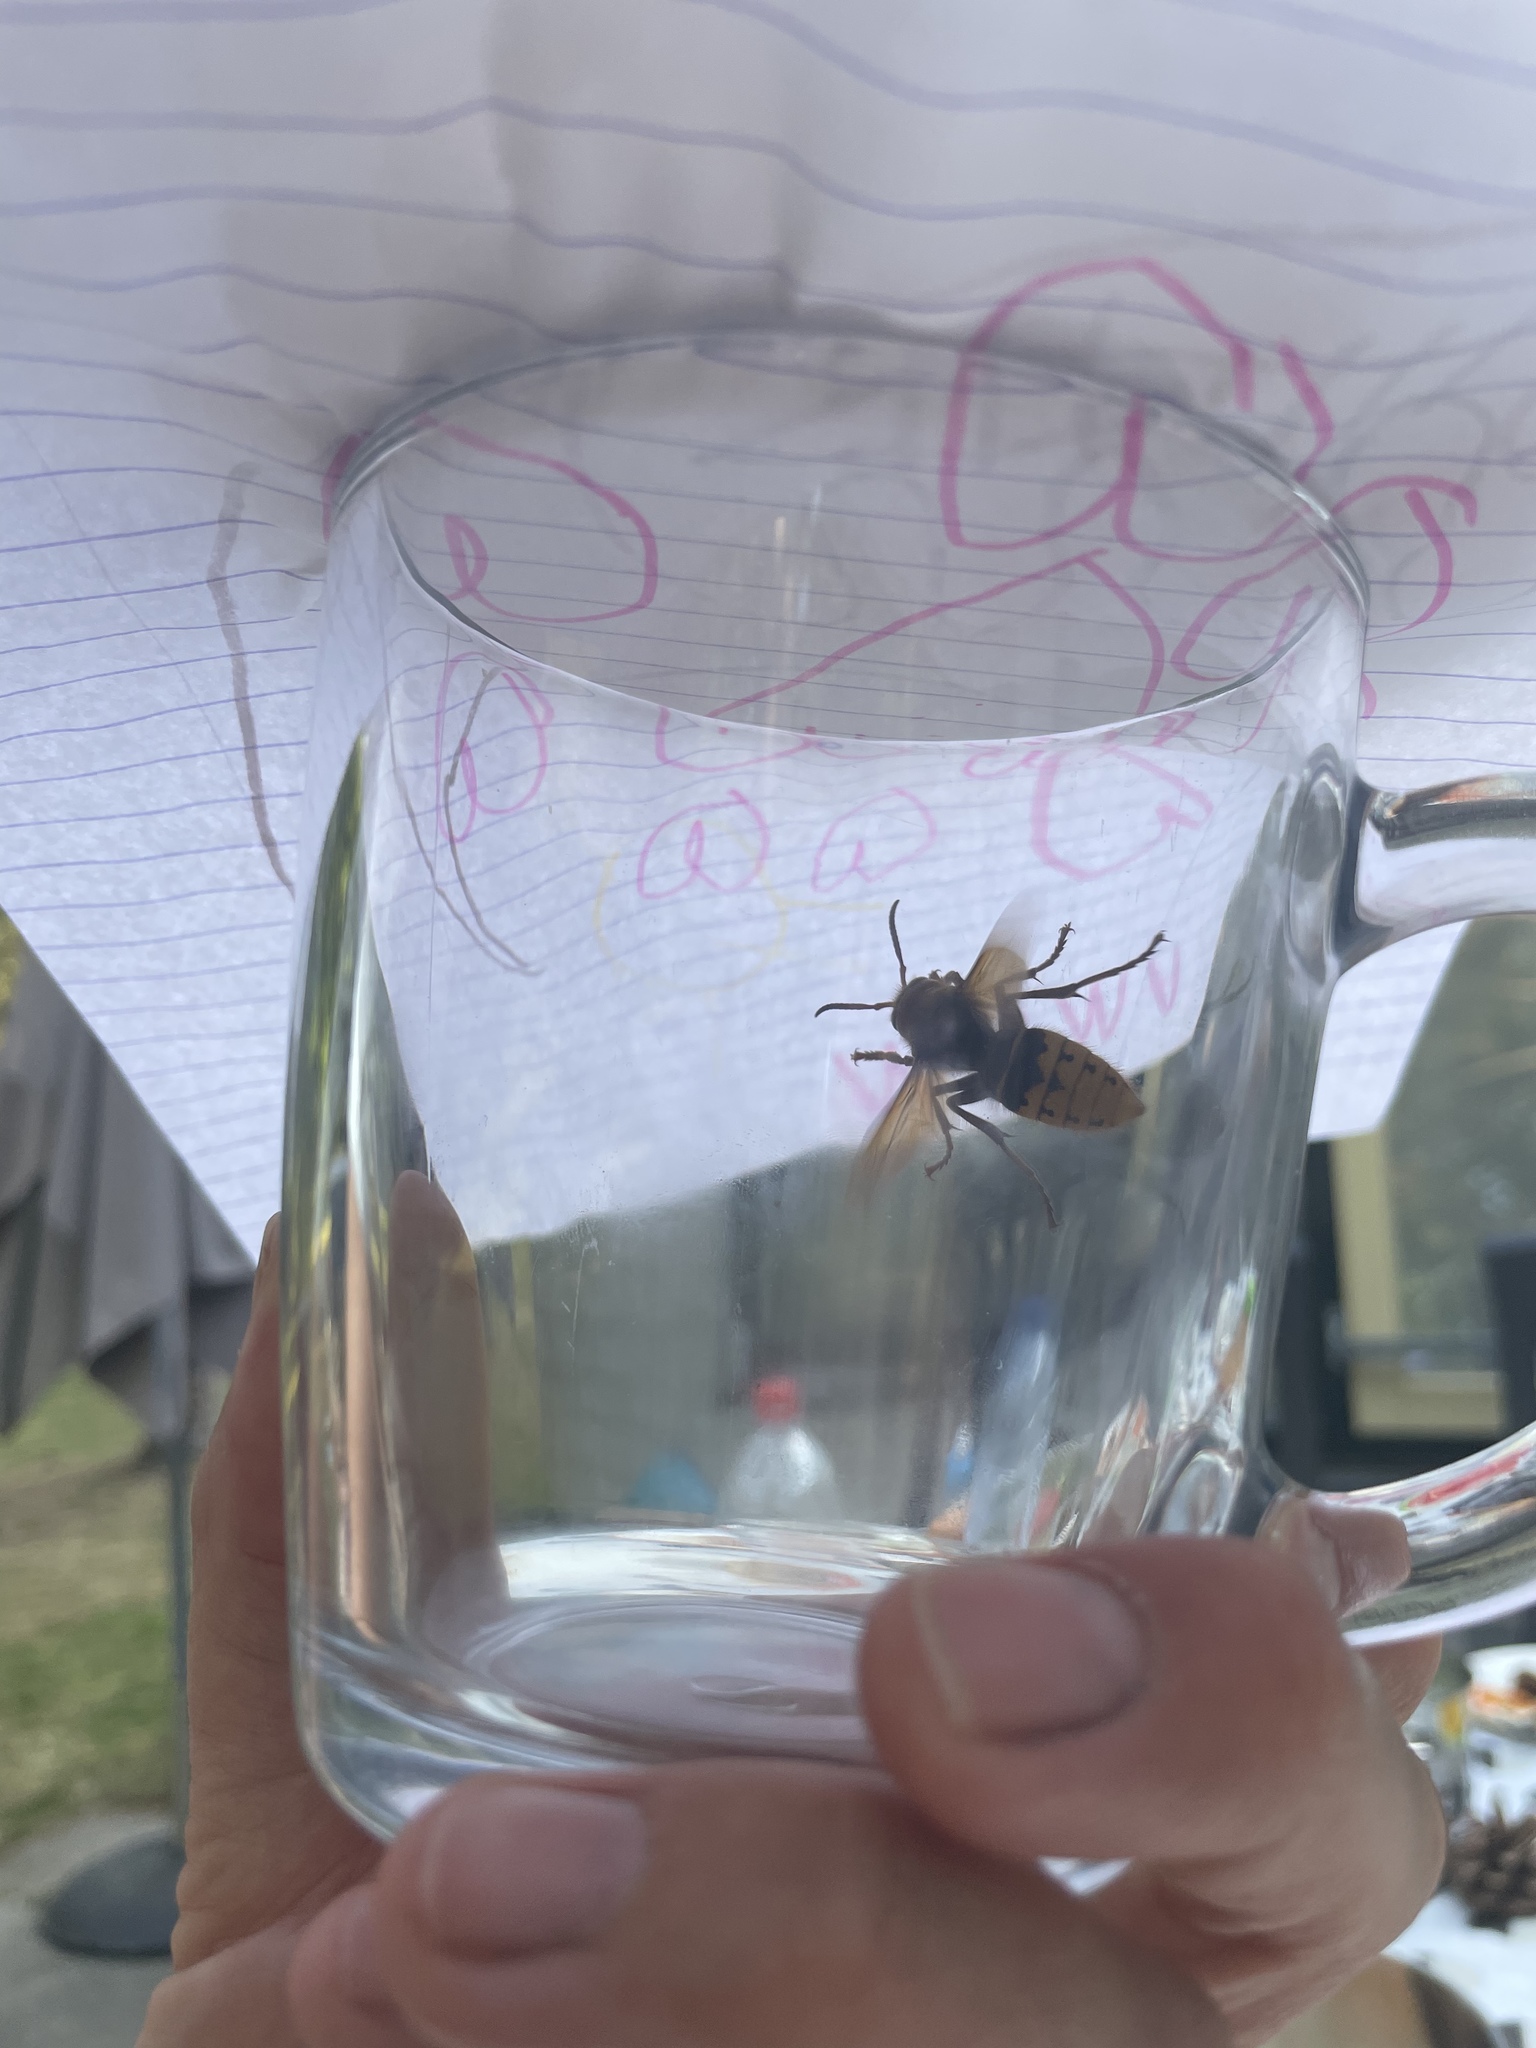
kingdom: Animalia
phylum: Arthropoda
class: Insecta
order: Hymenoptera
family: Vespidae
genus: Vespa
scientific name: Vespa crabro
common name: Hornet
